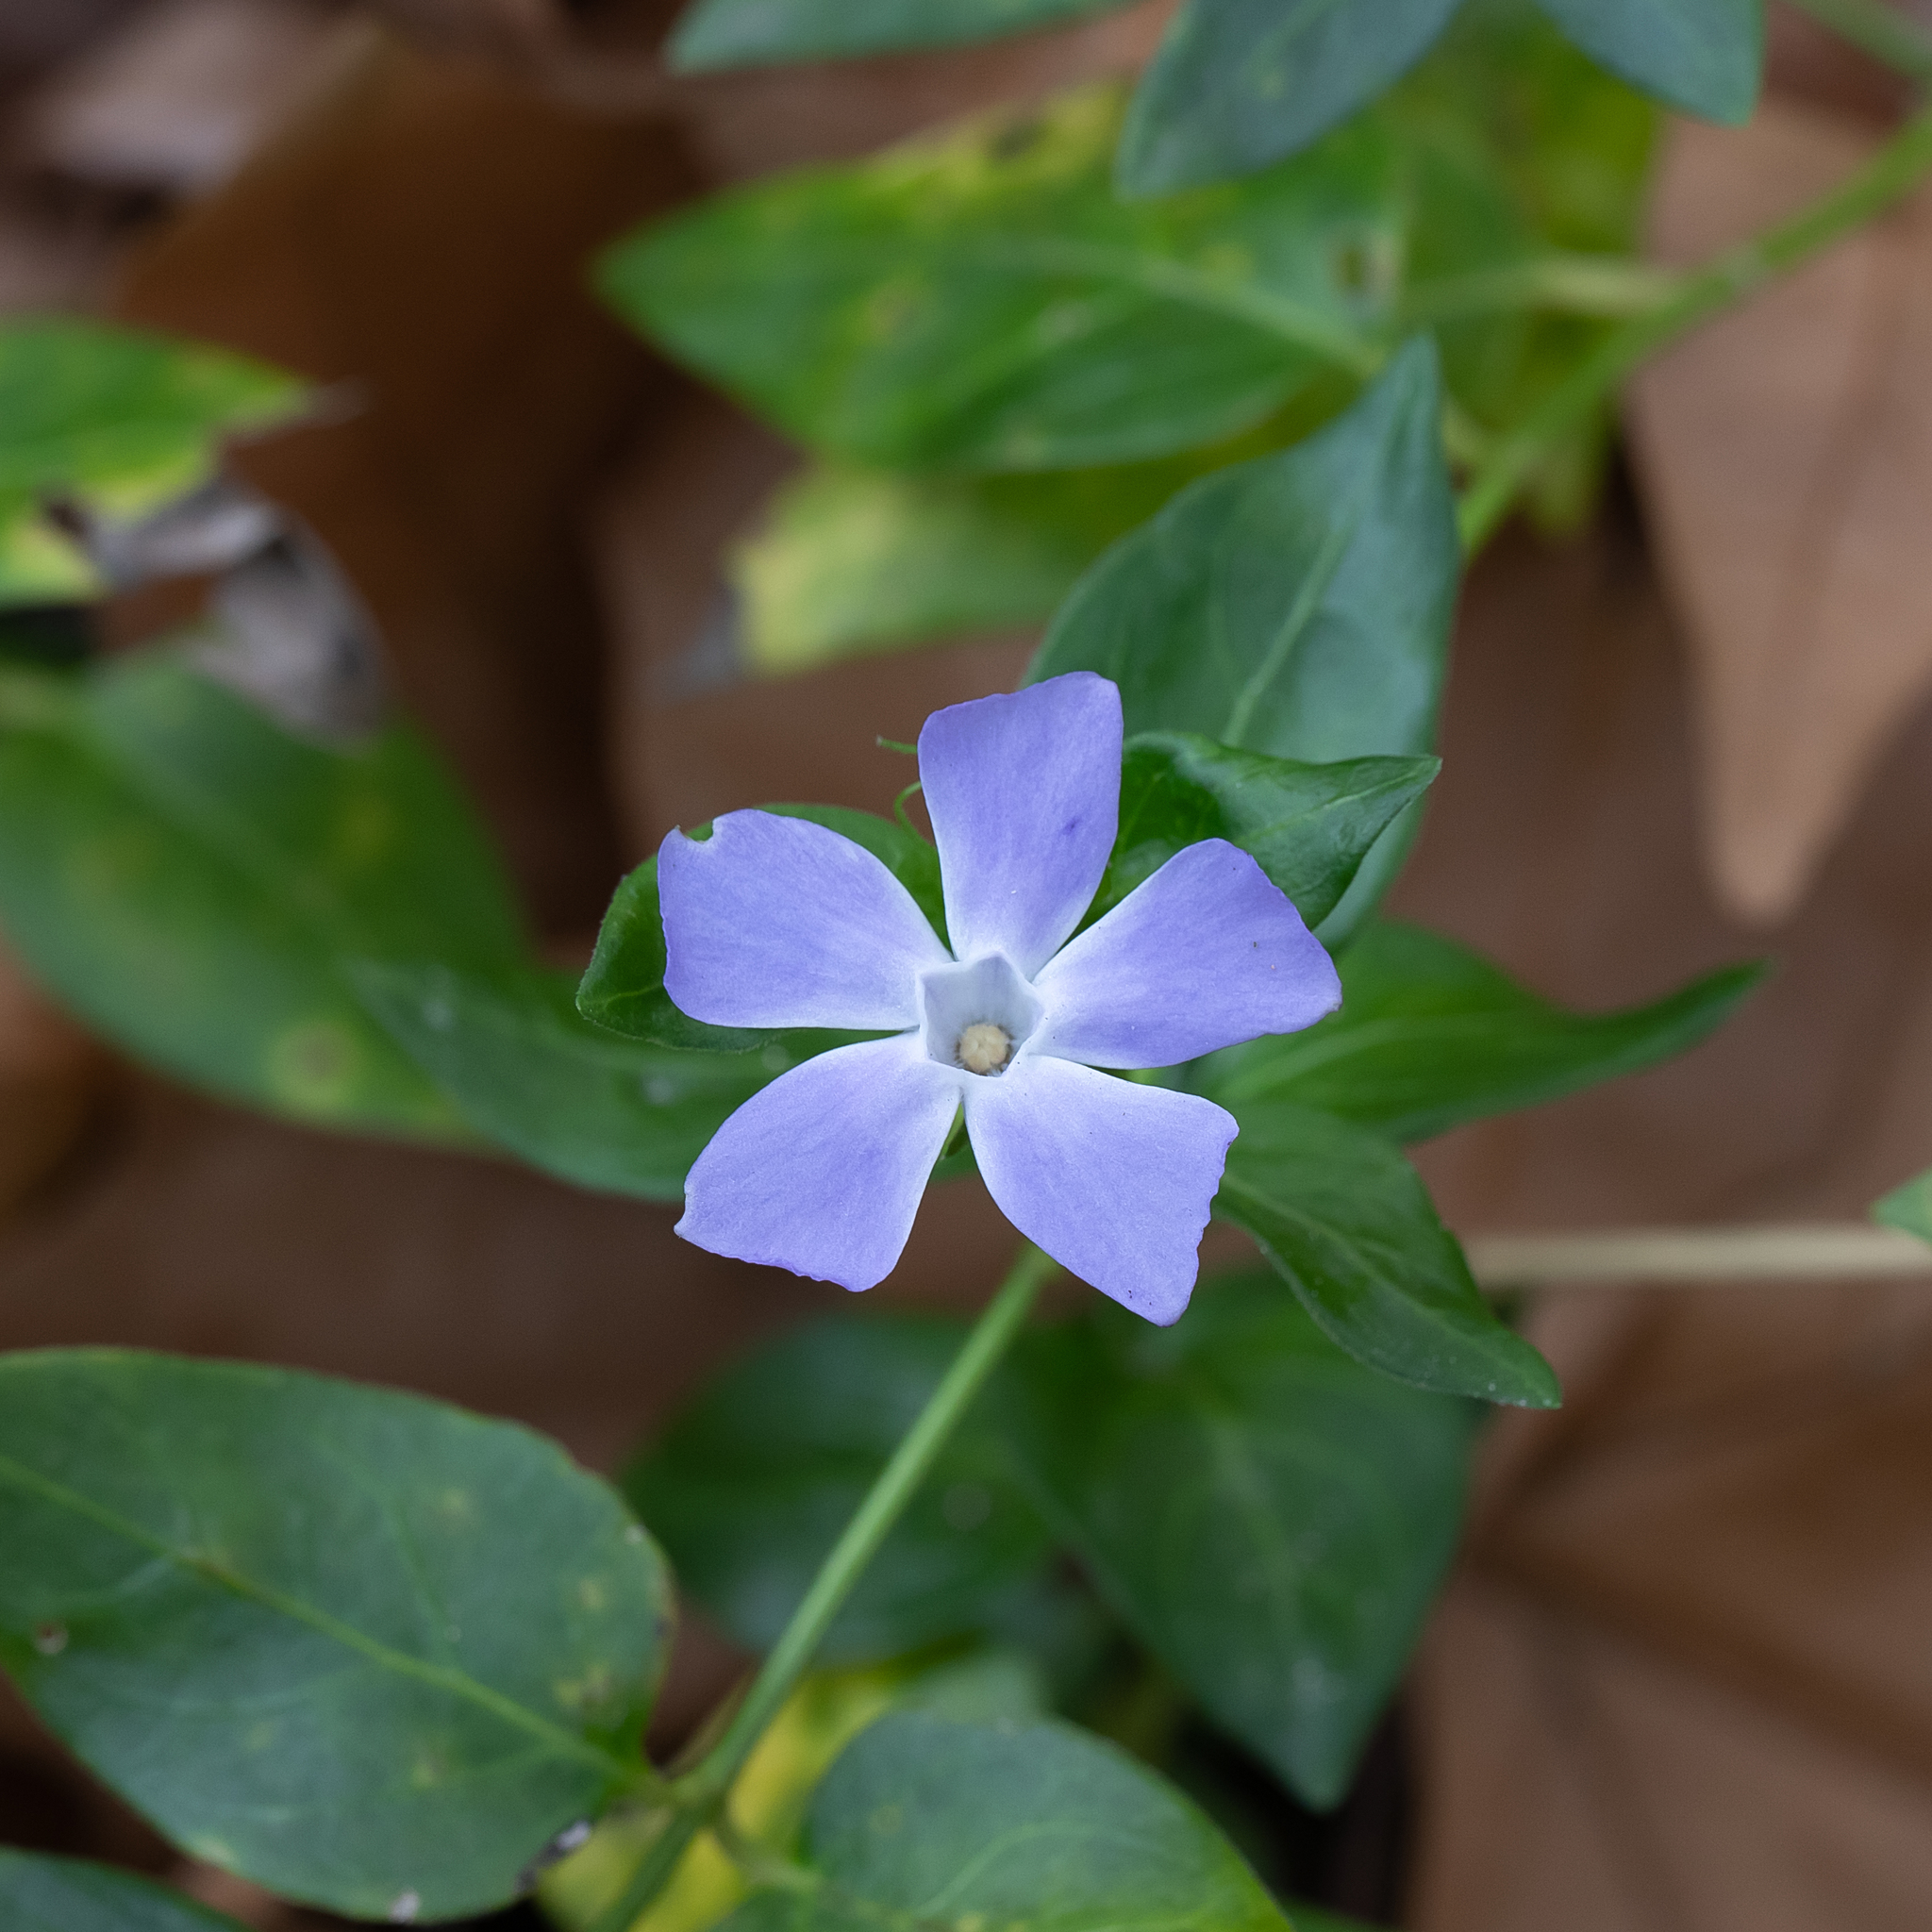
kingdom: Plantae
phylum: Tracheophyta
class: Magnoliopsida
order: Gentianales
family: Apocynaceae
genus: Vinca
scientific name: Vinca major
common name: Greater periwinkle
